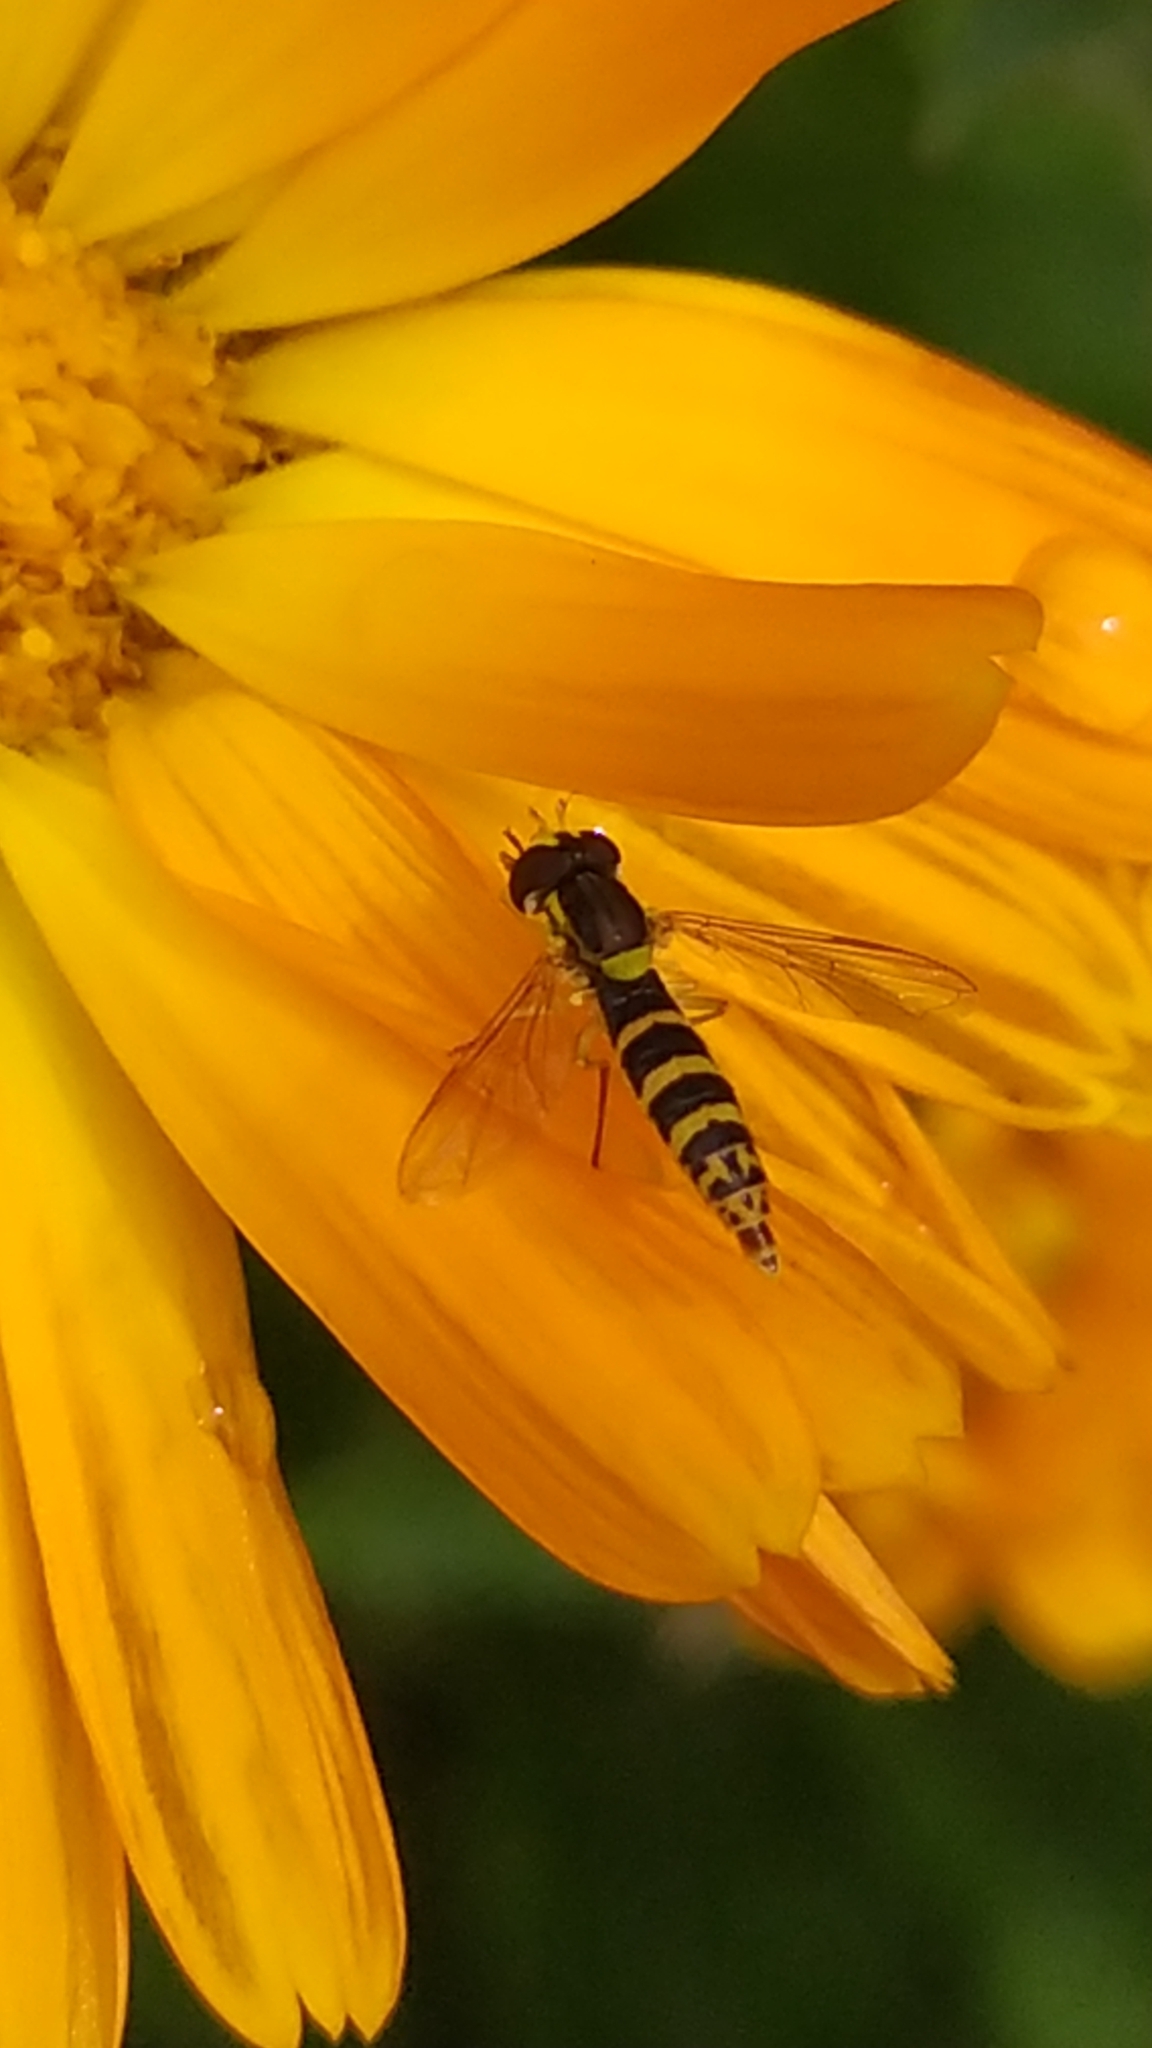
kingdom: Animalia
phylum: Arthropoda
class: Insecta
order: Diptera
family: Syrphidae
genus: Sphaerophoria
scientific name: Sphaerophoria
